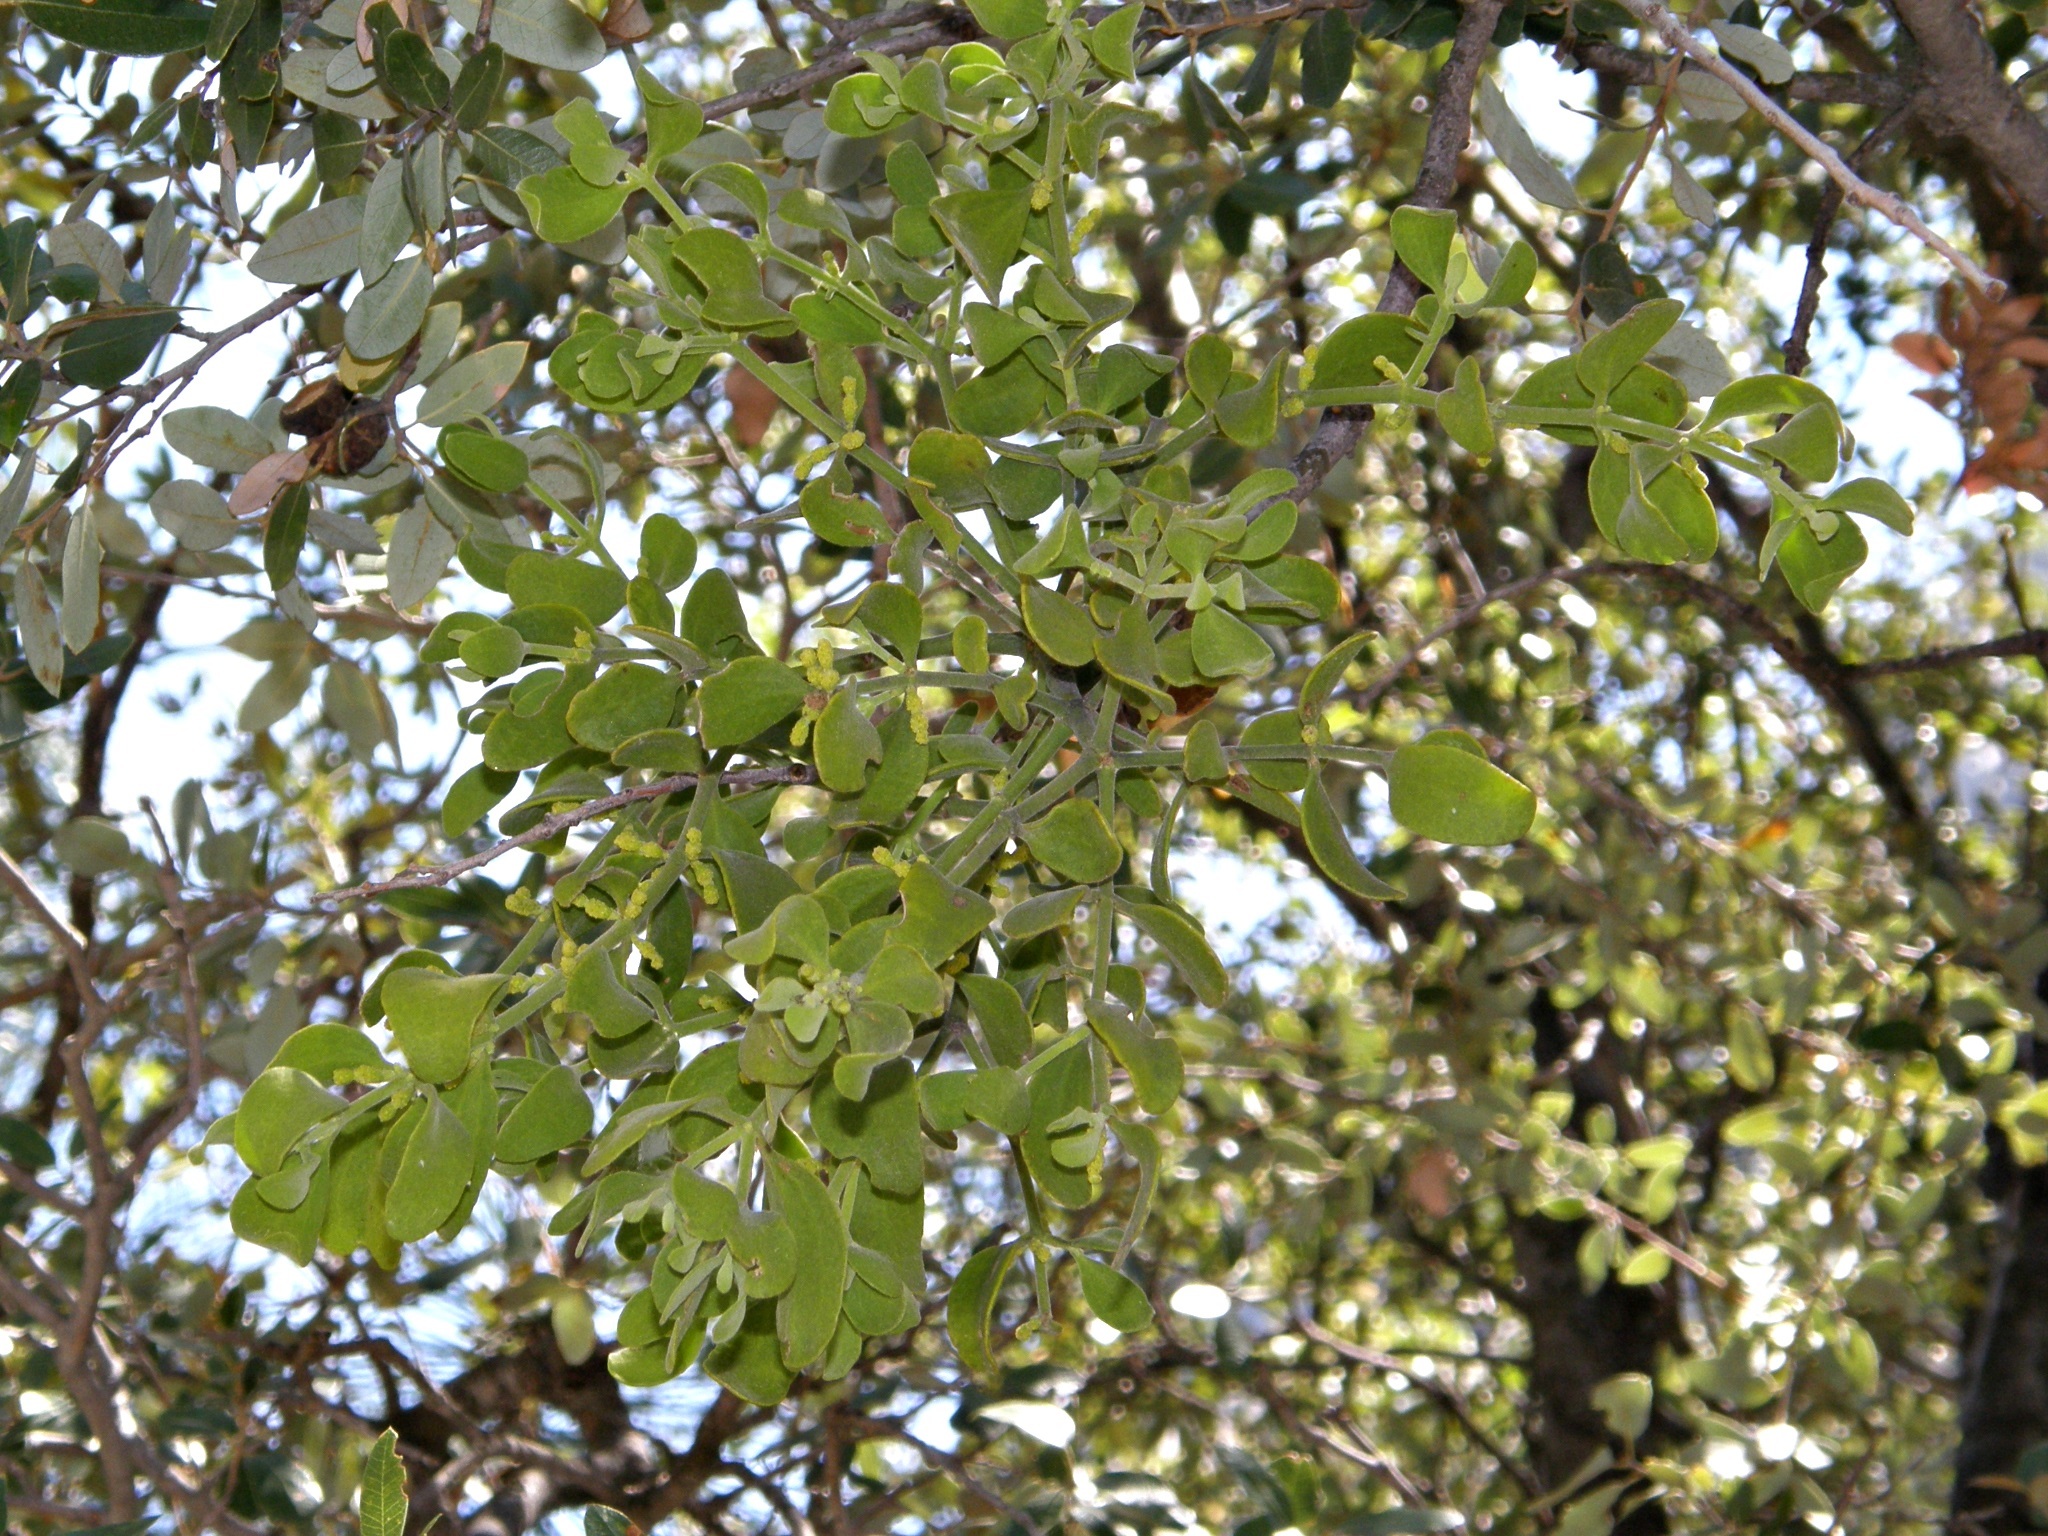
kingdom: Plantae
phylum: Tracheophyta
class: Magnoliopsida
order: Santalales
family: Viscaceae
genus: Phoradendron
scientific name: Phoradendron leucarpum
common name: Pacific mistletoe
